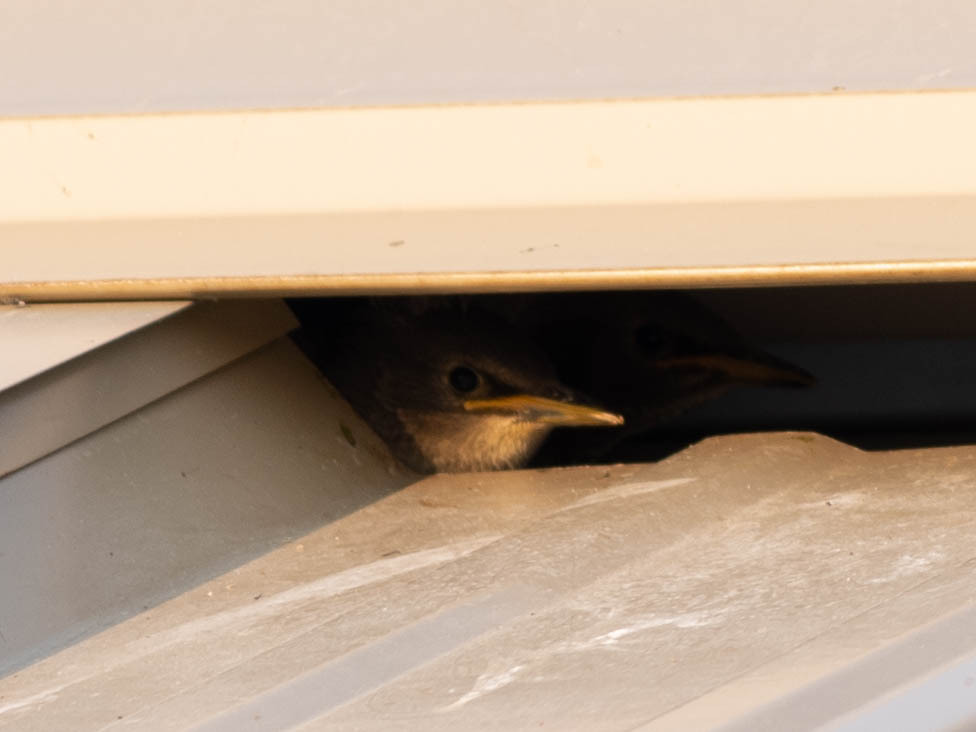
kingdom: Animalia
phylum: Chordata
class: Aves
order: Passeriformes
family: Sturnidae
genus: Sturnus
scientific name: Sturnus vulgaris
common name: Common starling
